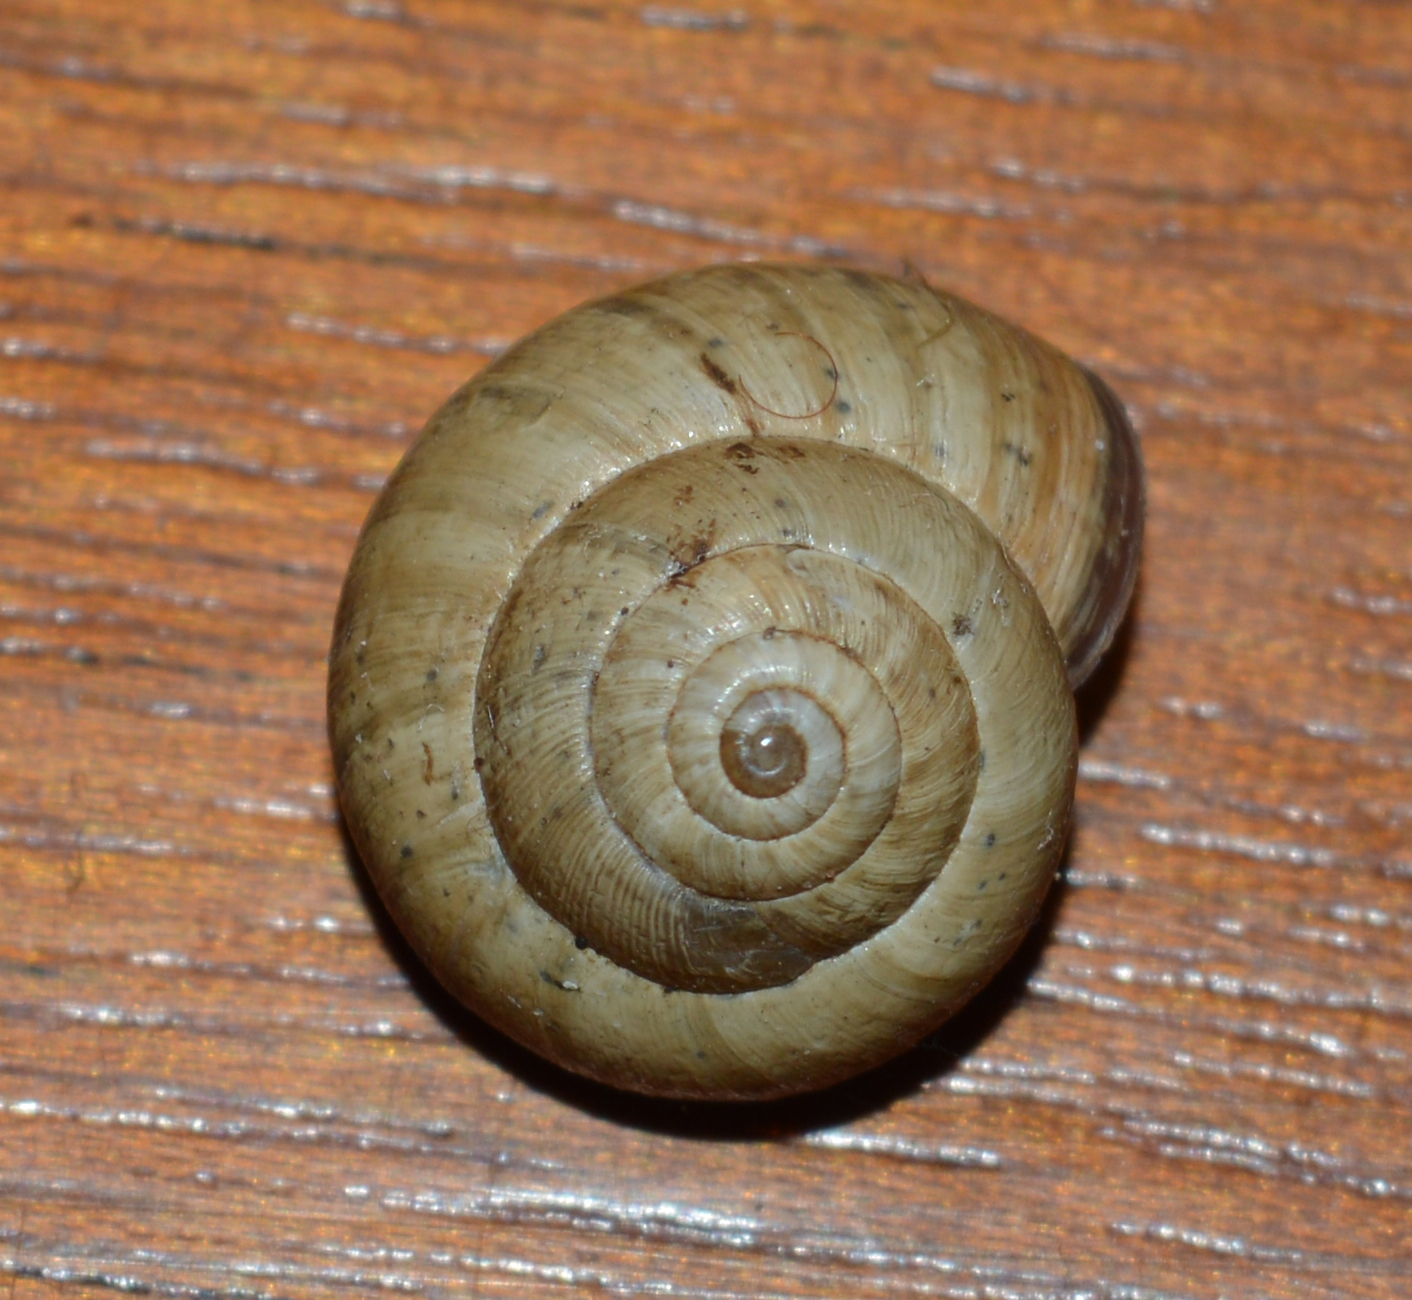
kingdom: Animalia
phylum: Mollusca
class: Gastropoda
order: Stylommatophora
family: Geomitridae
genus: Cernuella
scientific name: Cernuella virgata
